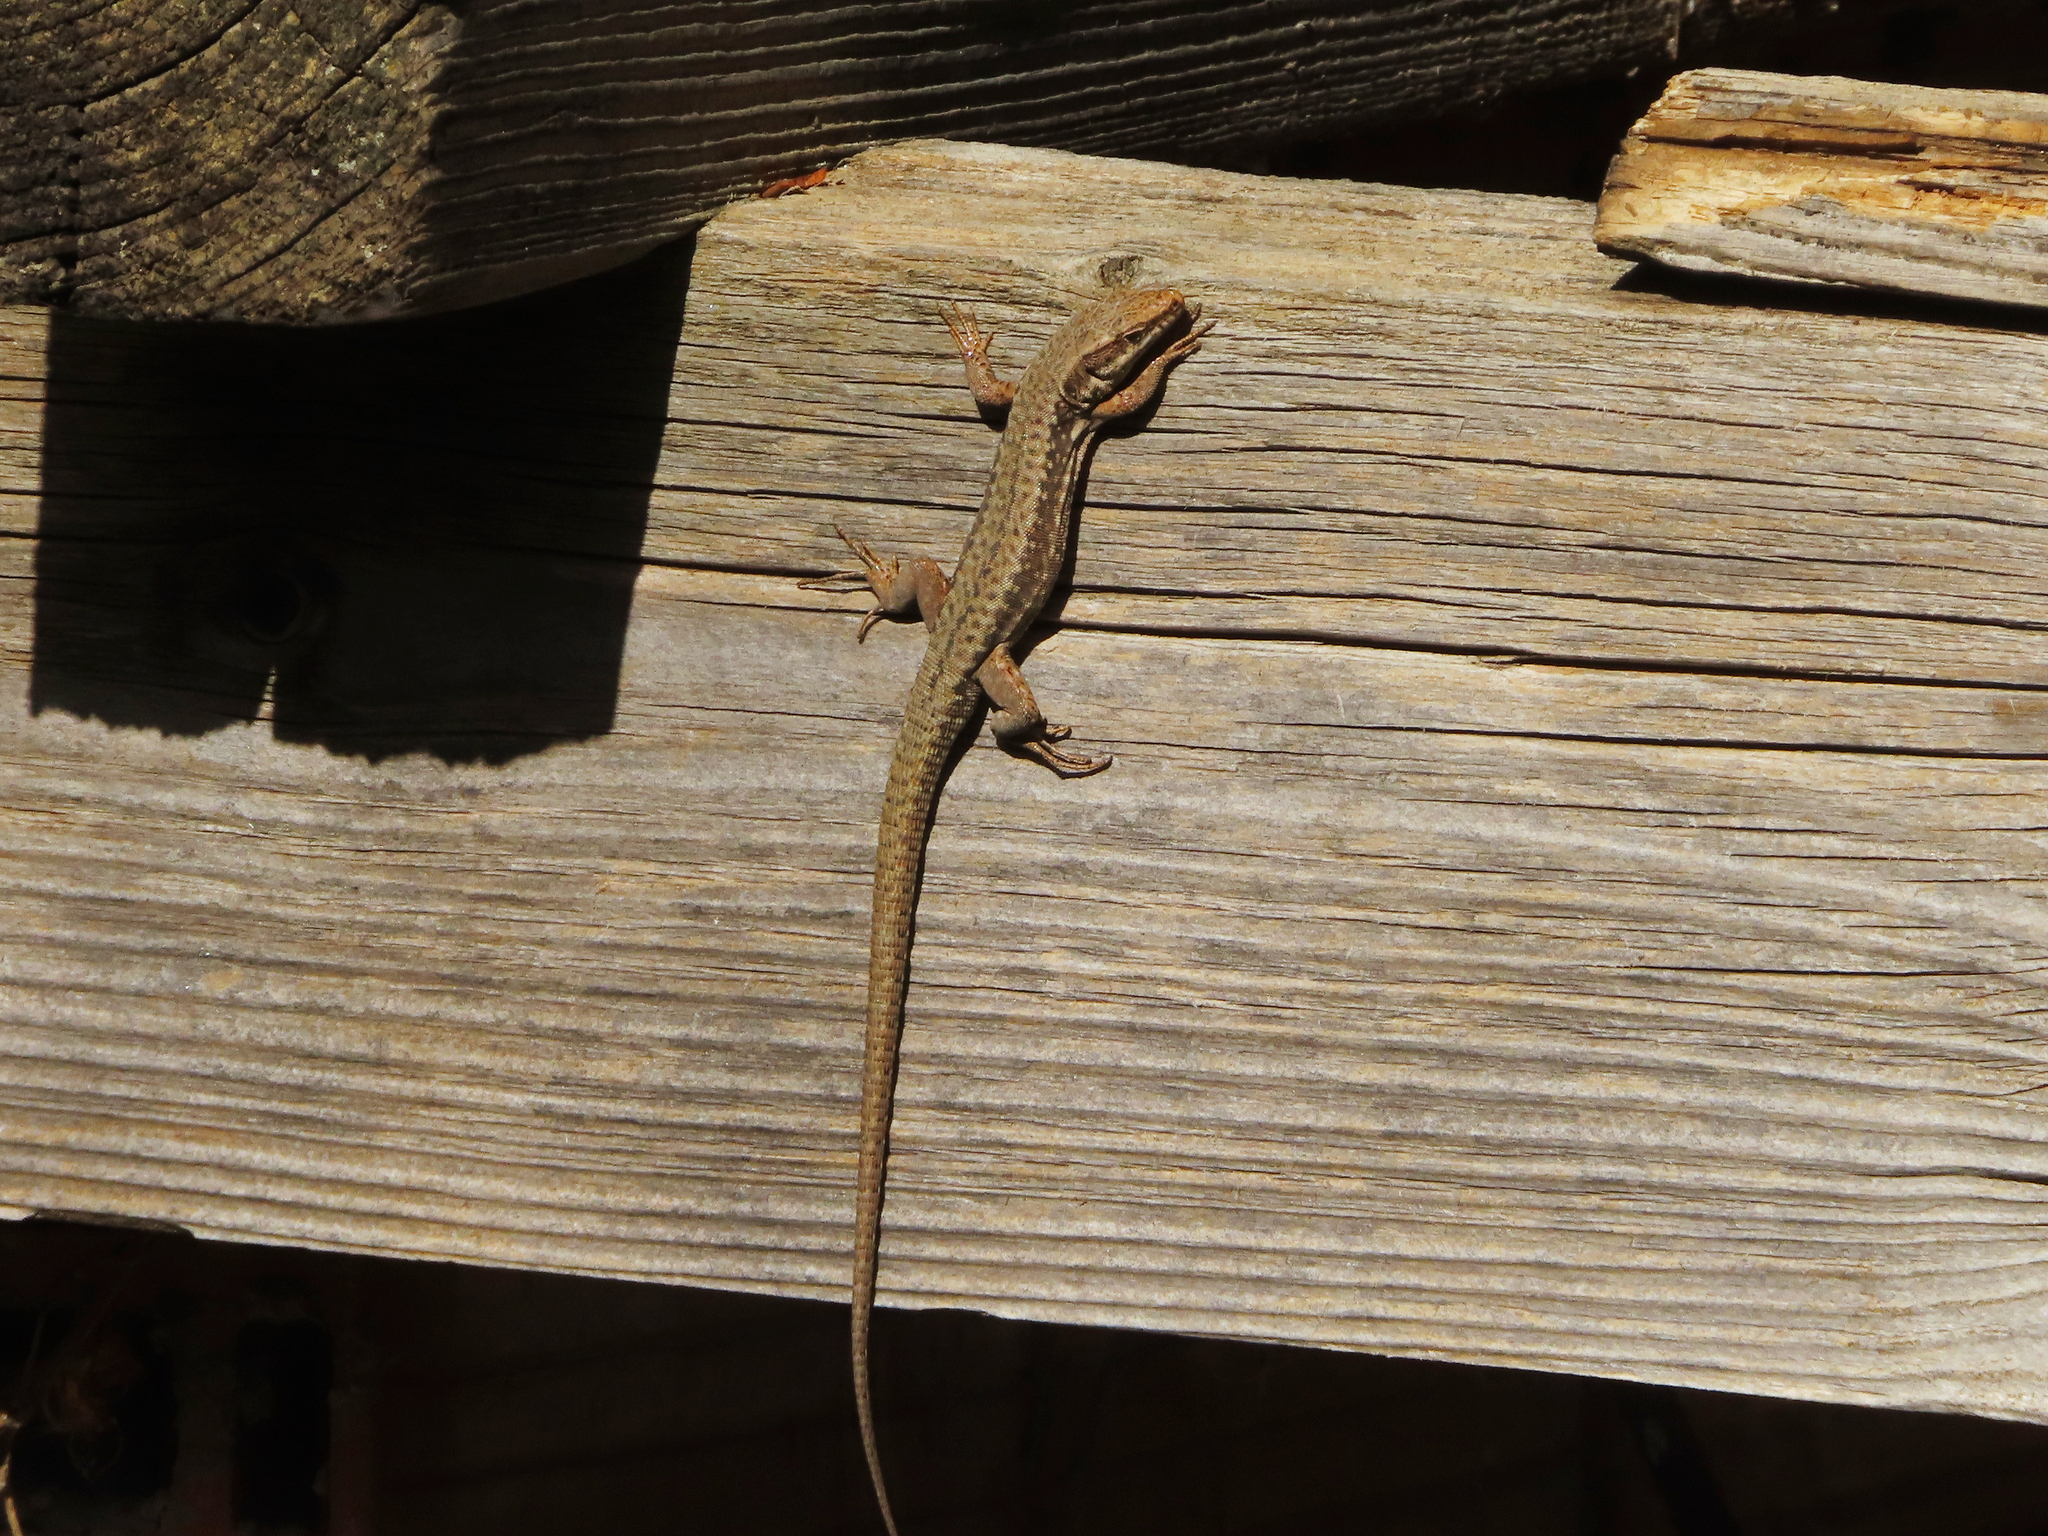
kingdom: Animalia
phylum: Chordata
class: Squamata
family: Lacertidae
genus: Podarcis
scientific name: Podarcis muralis
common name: Common wall lizard
